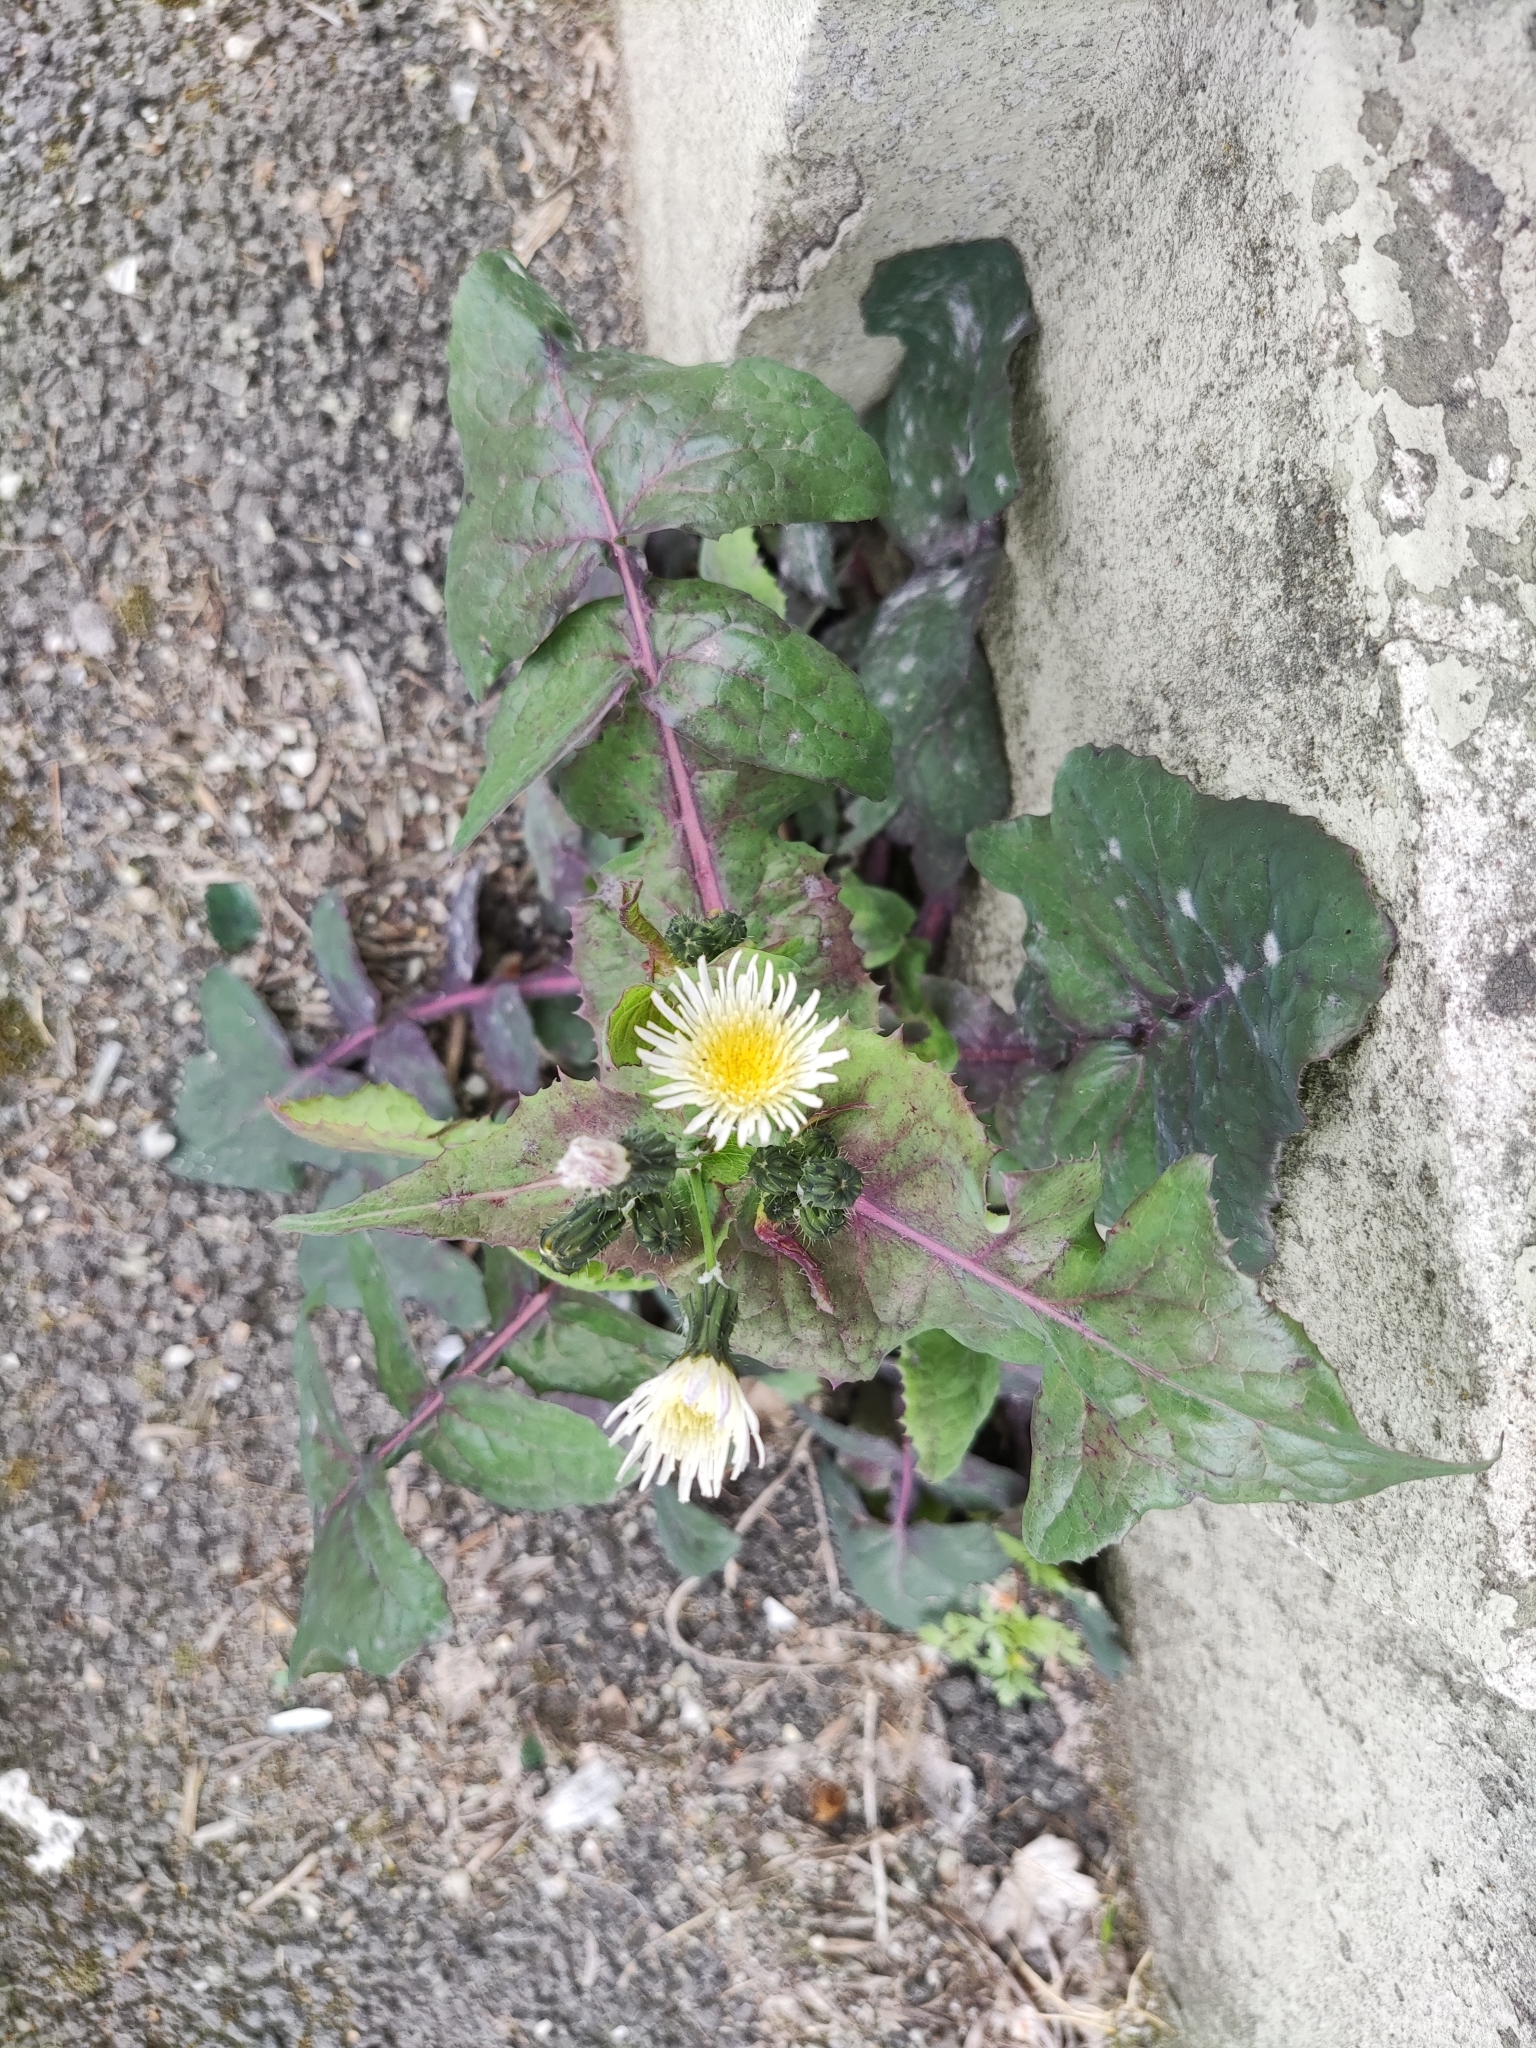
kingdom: Plantae
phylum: Tracheophyta
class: Magnoliopsida
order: Asterales
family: Asteraceae
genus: Sonchus
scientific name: Sonchus oleraceus
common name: Common sowthistle
